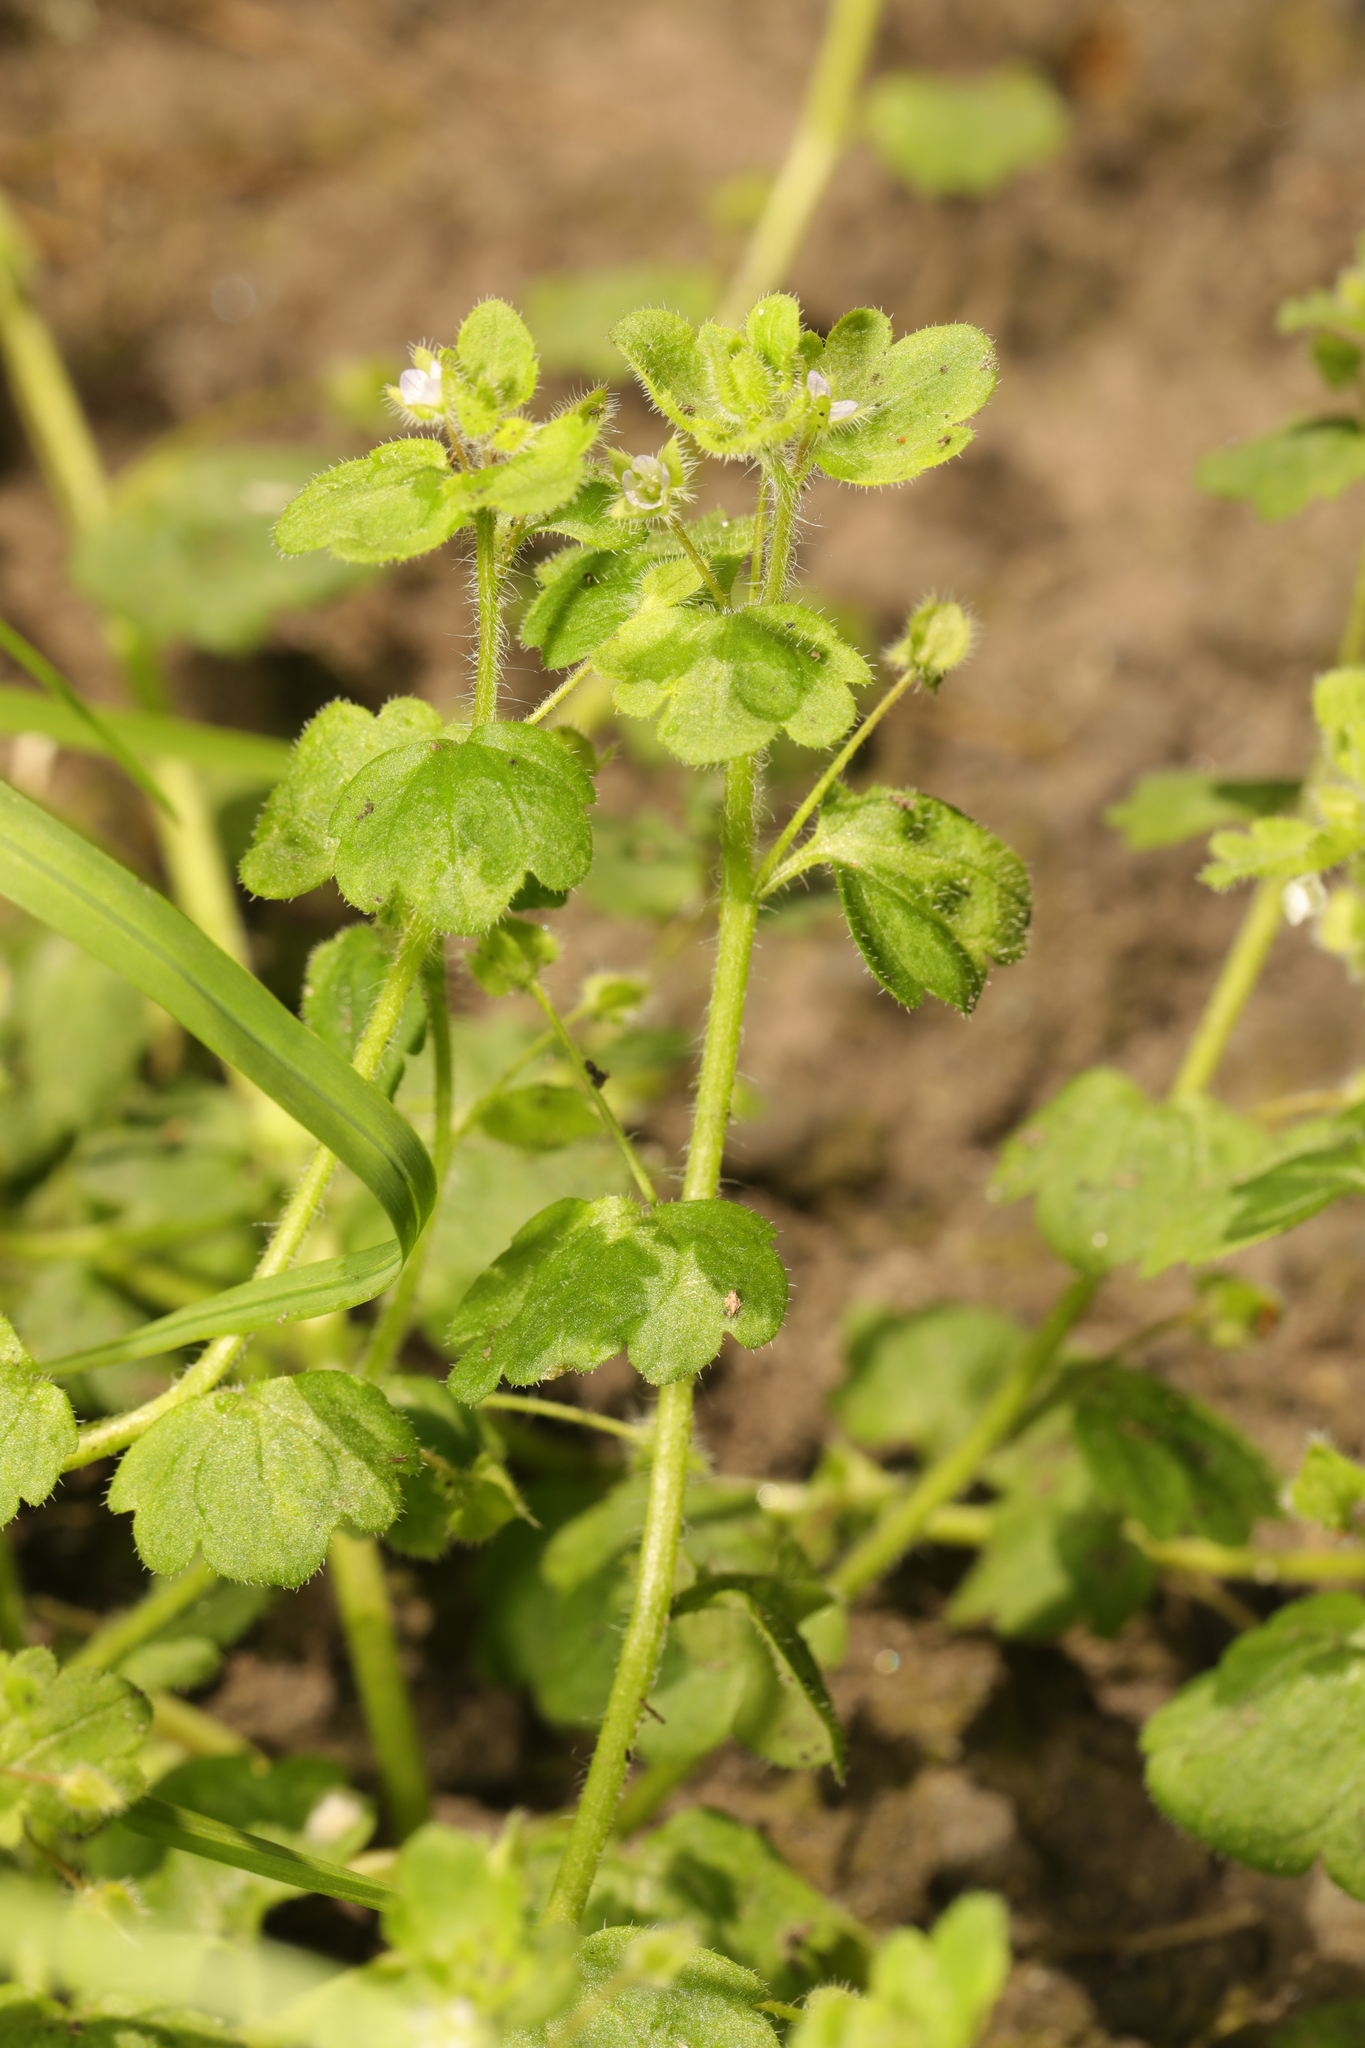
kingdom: Plantae
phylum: Tracheophyta
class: Magnoliopsida
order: Lamiales
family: Plantaginaceae
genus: Veronica
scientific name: Veronica sublobata
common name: False ivy-leaved speedwell
